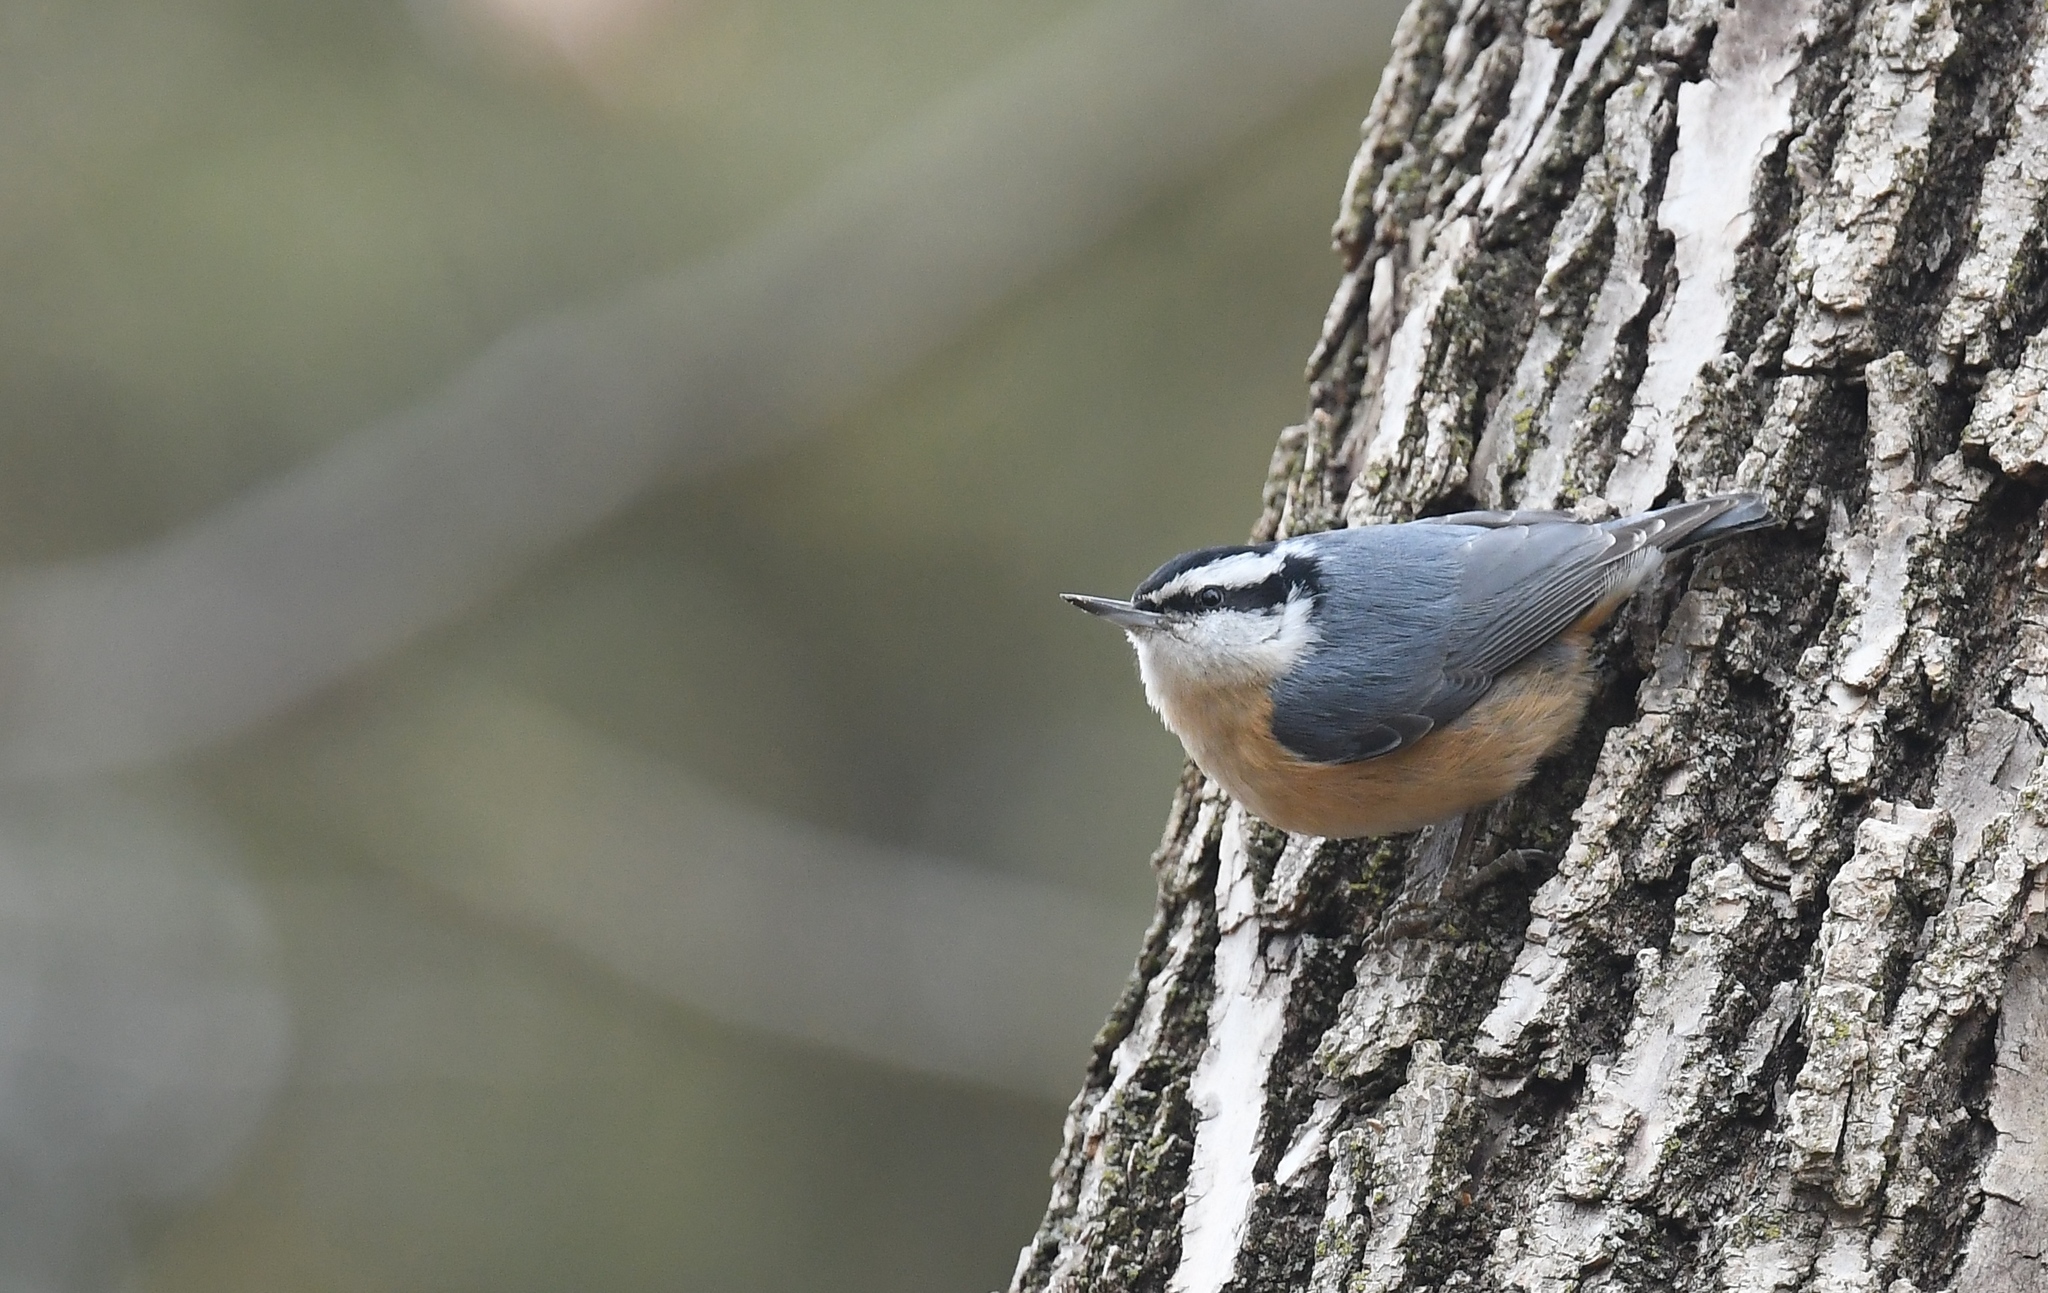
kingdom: Animalia
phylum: Chordata
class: Aves
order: Passeriformes
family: Sittidae
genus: Sitta
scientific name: Sitta canadensis
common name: Red-breasted nuthatch
